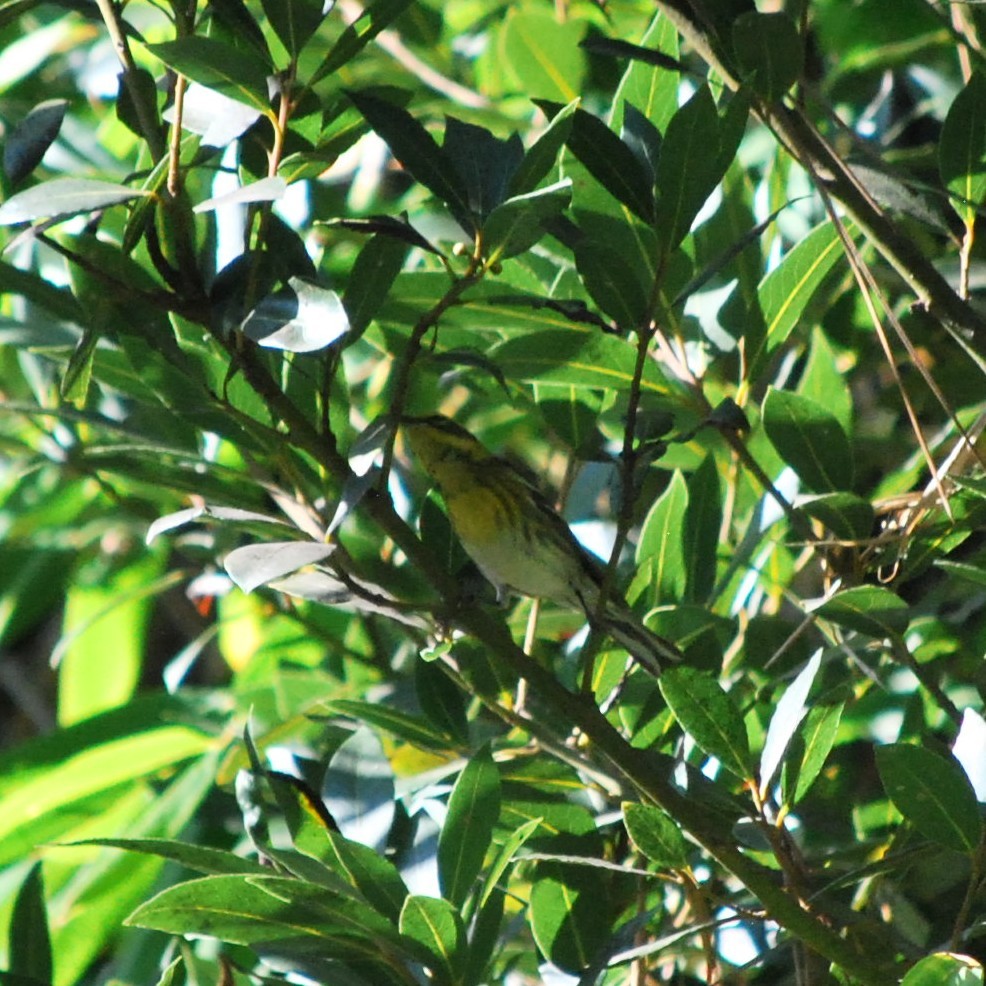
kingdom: Animalia
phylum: Chordata
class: Aves
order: Passeriformes
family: Parulidae
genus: Setophaga
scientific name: Setophaga townsendi
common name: Townsend's warbler
